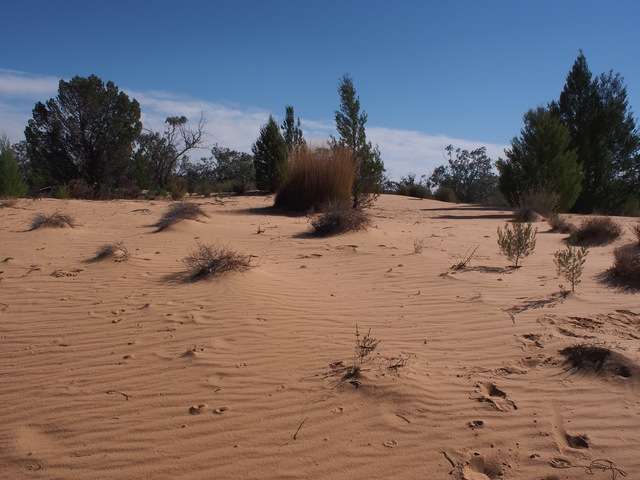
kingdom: Plantae
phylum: Tracheophyta
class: Liliopsida
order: Poales
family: Poaceae
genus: Triodia
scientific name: Triodia scariosa
